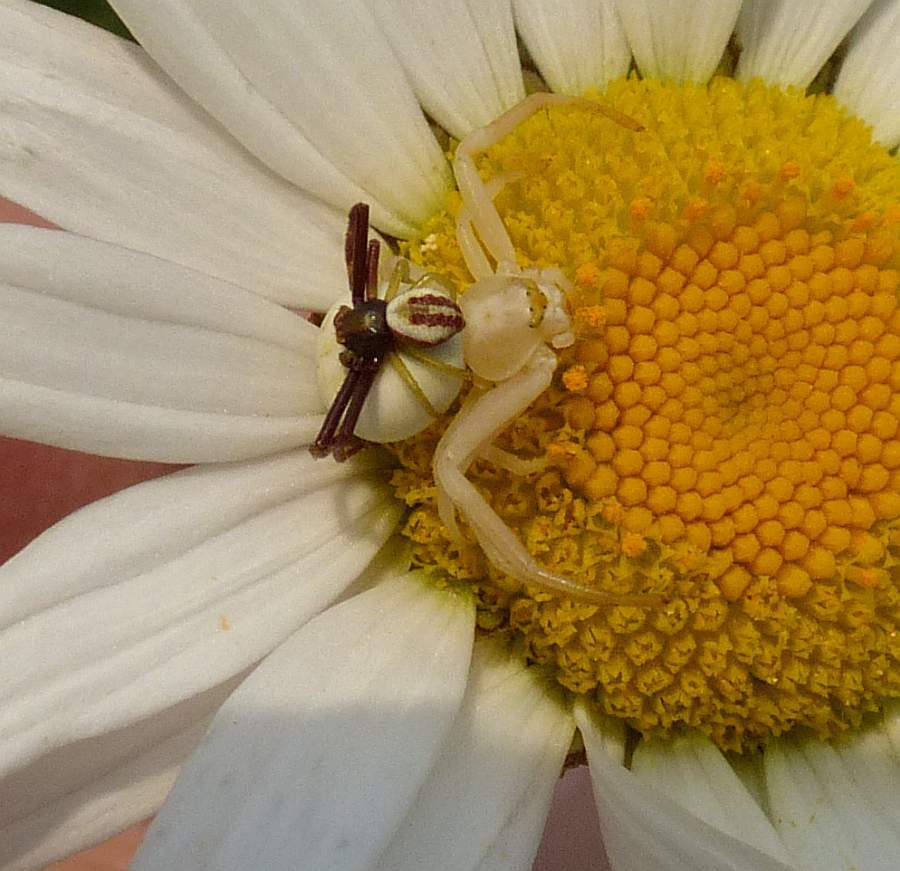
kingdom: Animalia
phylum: Arthropoda
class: Arachnida
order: Araneae
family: Thomisidae
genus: Misumena
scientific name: Misumena vatia
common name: Goldenrod crab spider
